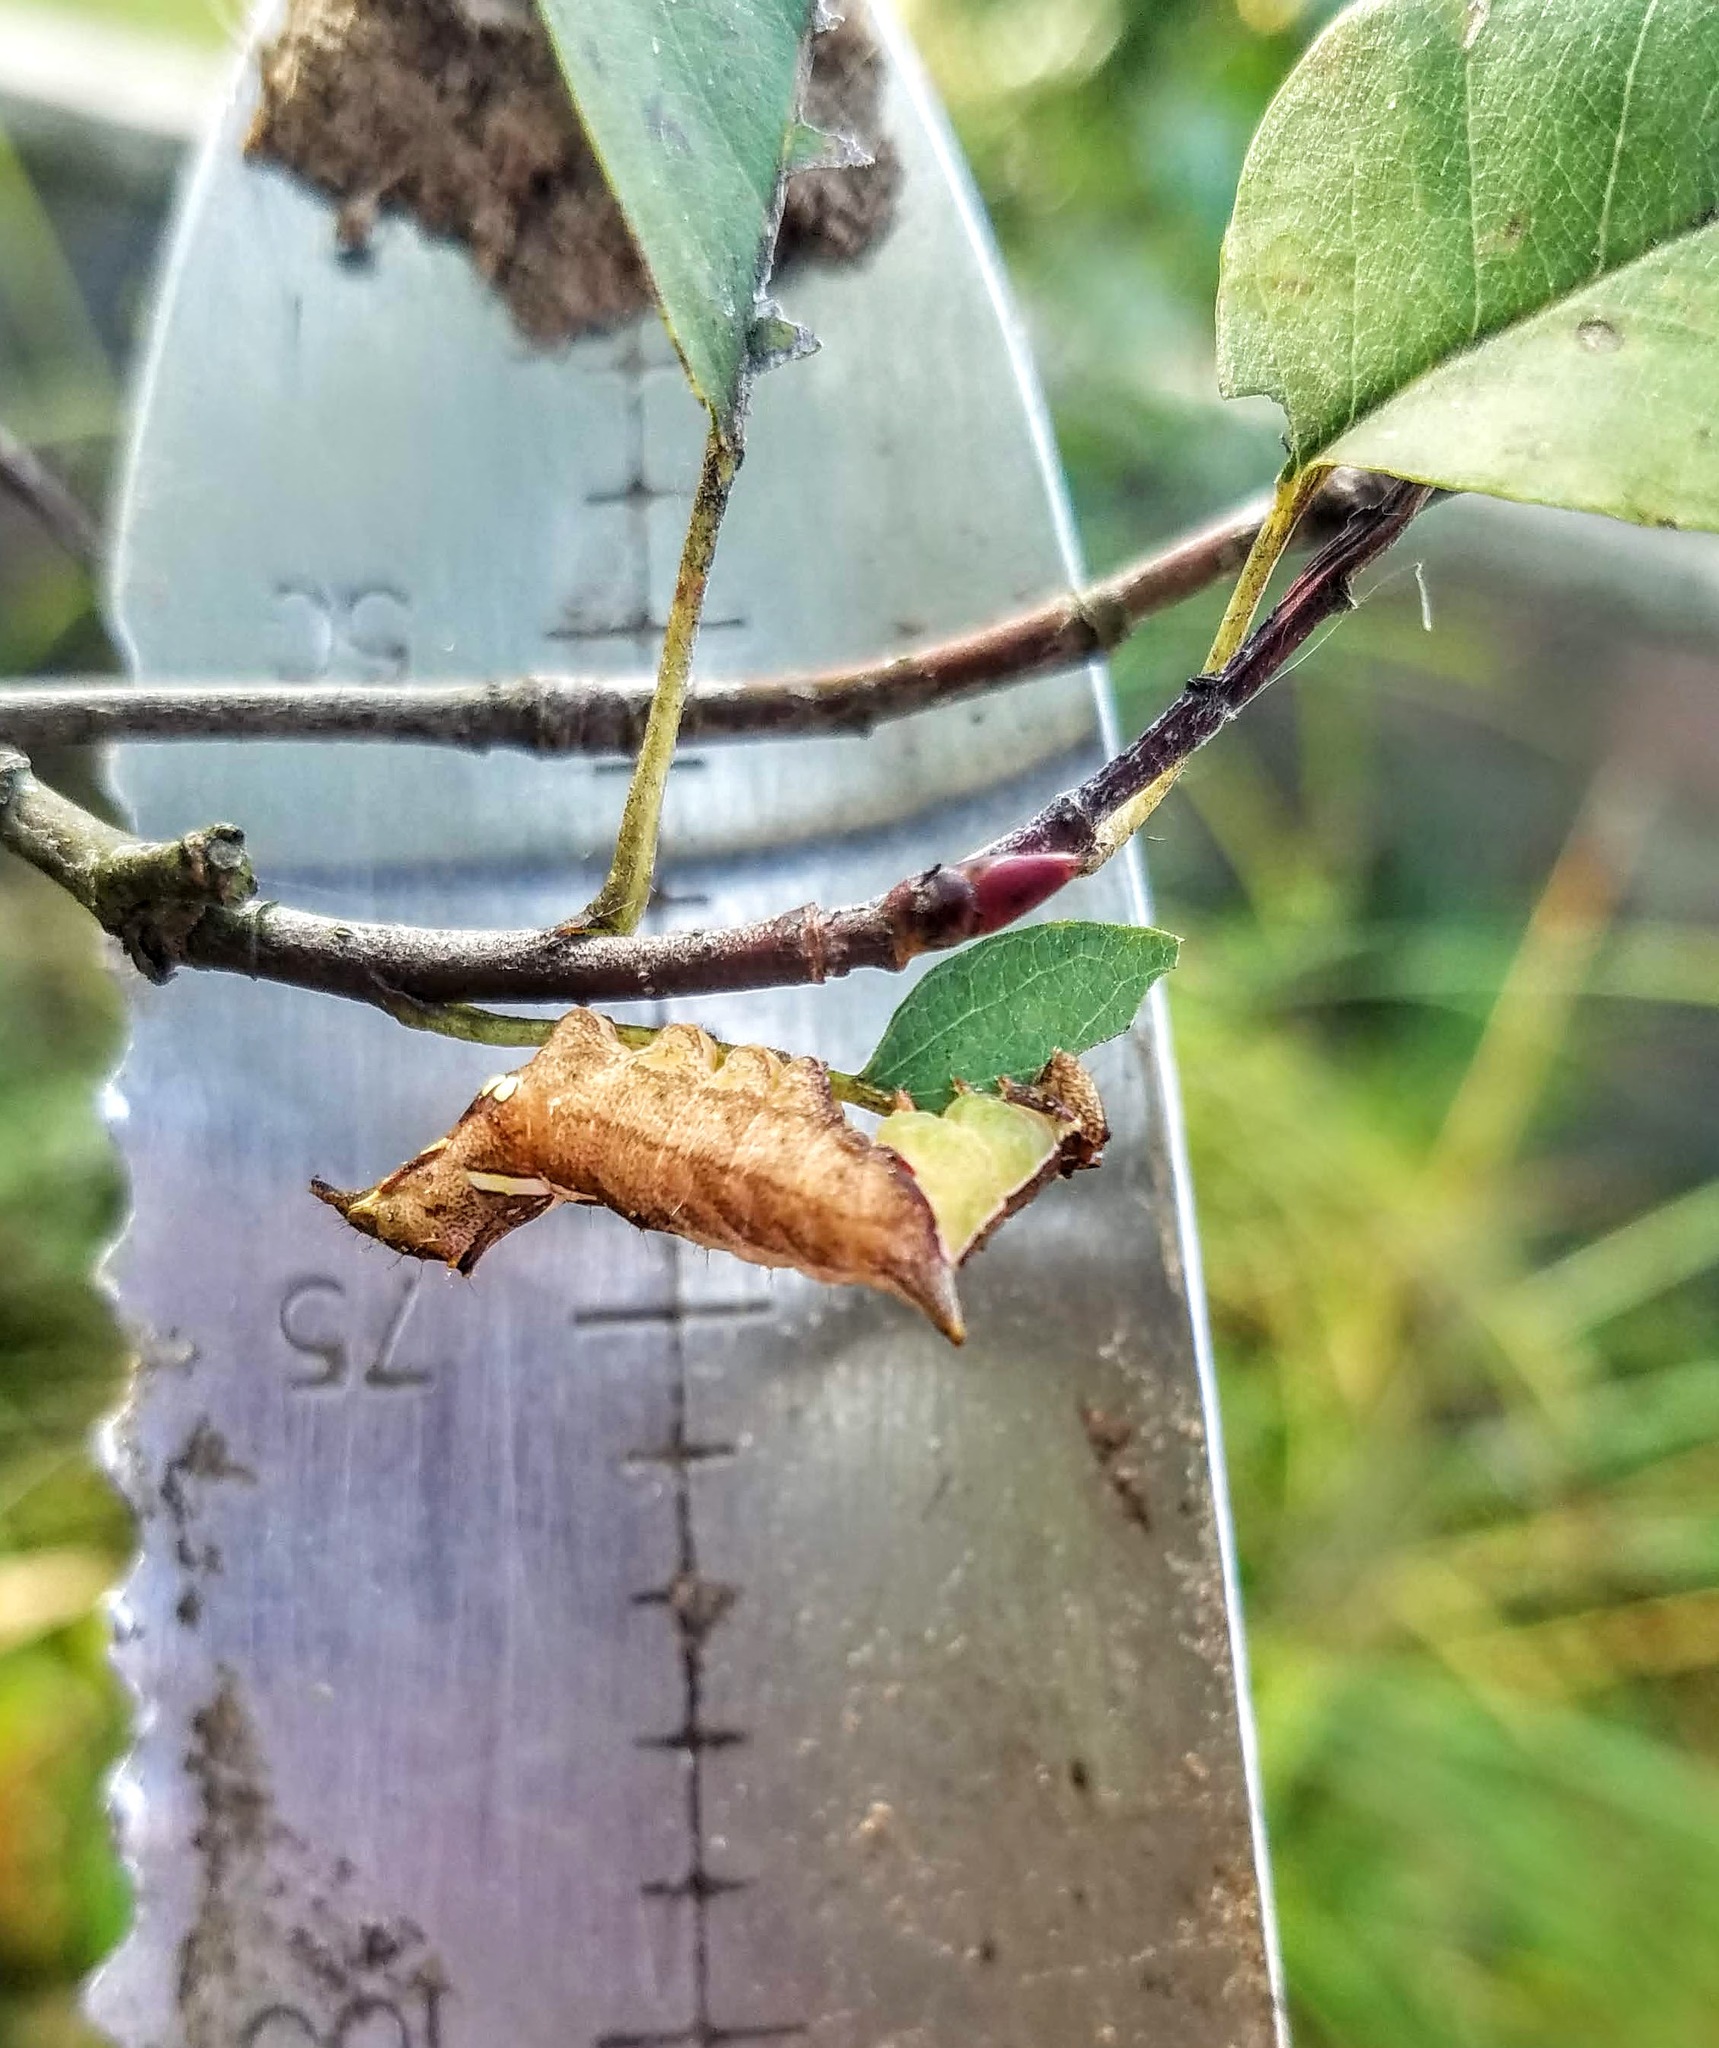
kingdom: Animalia
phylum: Arthropoda
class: Insecta
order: Lepidoptera
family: Notodontidae
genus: Schizura
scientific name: Schizura
